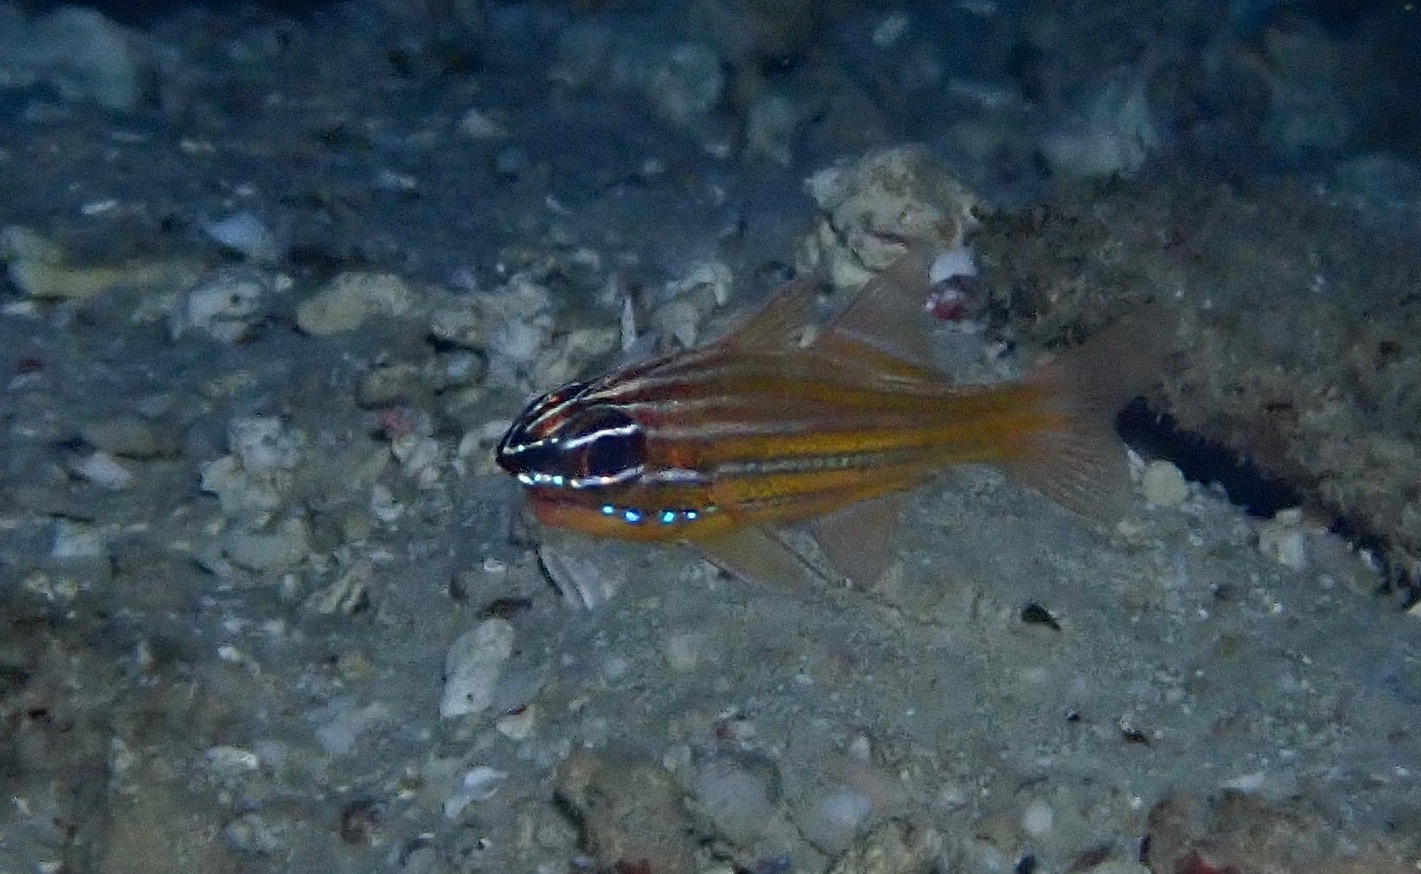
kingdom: Animalia
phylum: Chordata
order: Perciformes
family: Apogonidae
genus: Ostorhinchus
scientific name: Ostorhinchus wassinki
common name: Kupang cardinalfish
